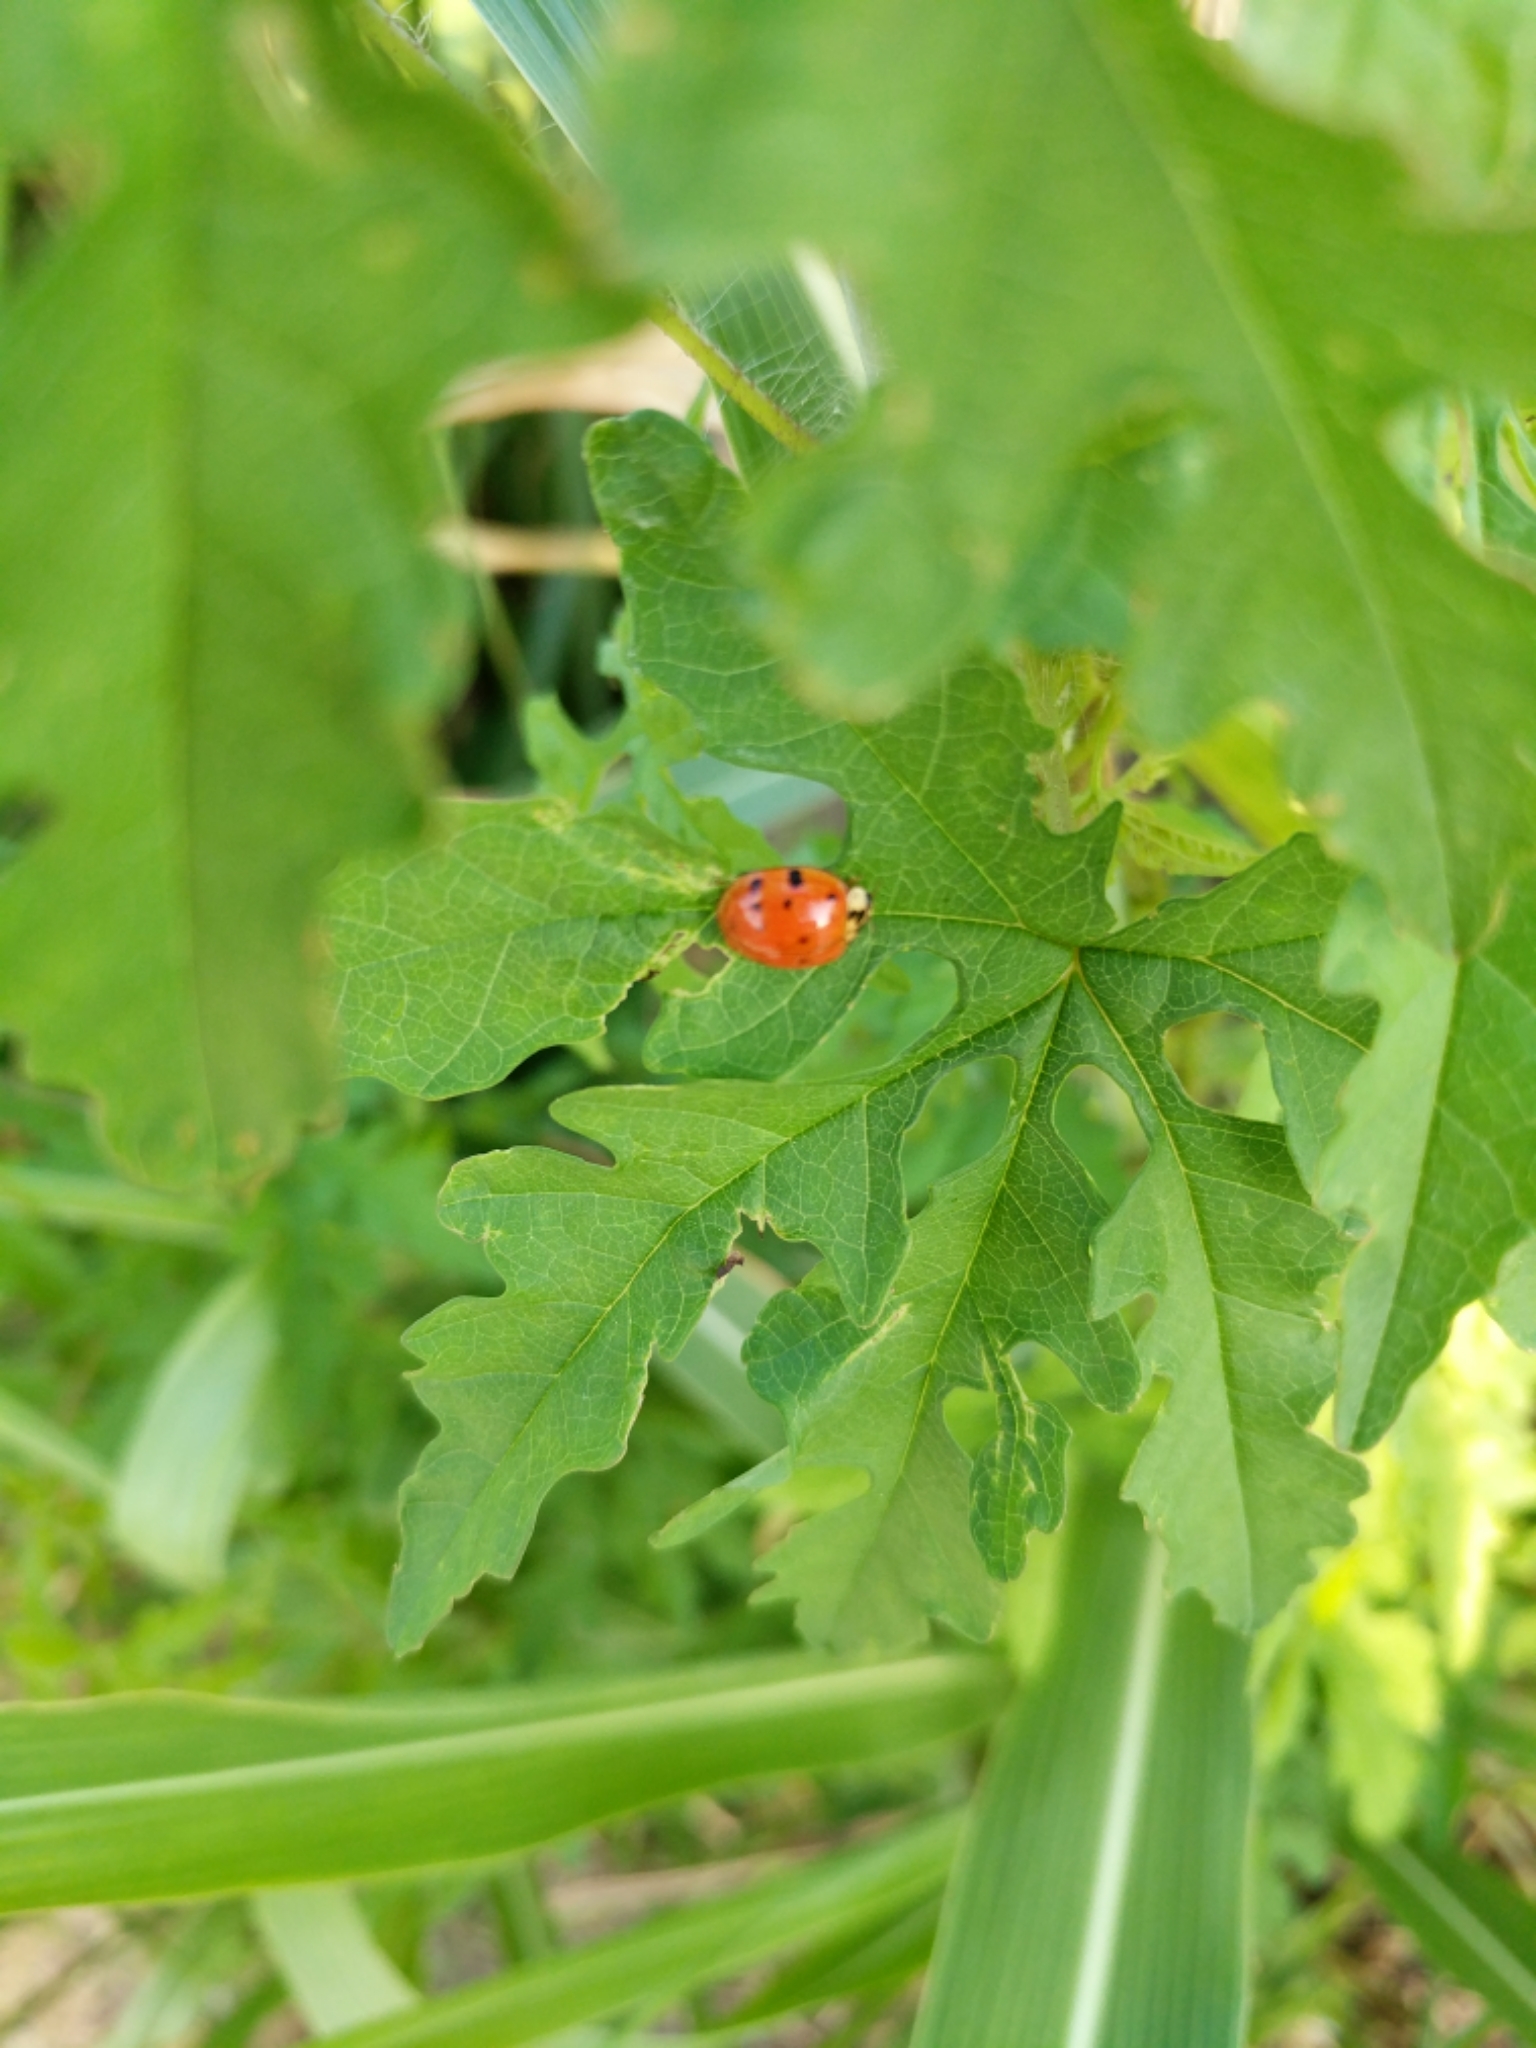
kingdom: Animalia
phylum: Arthropoda
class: Insecta
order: Coleoptera
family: Coccinellidae
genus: Harmonia
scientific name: Harmonia axyridis
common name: Harlequin ladybird
